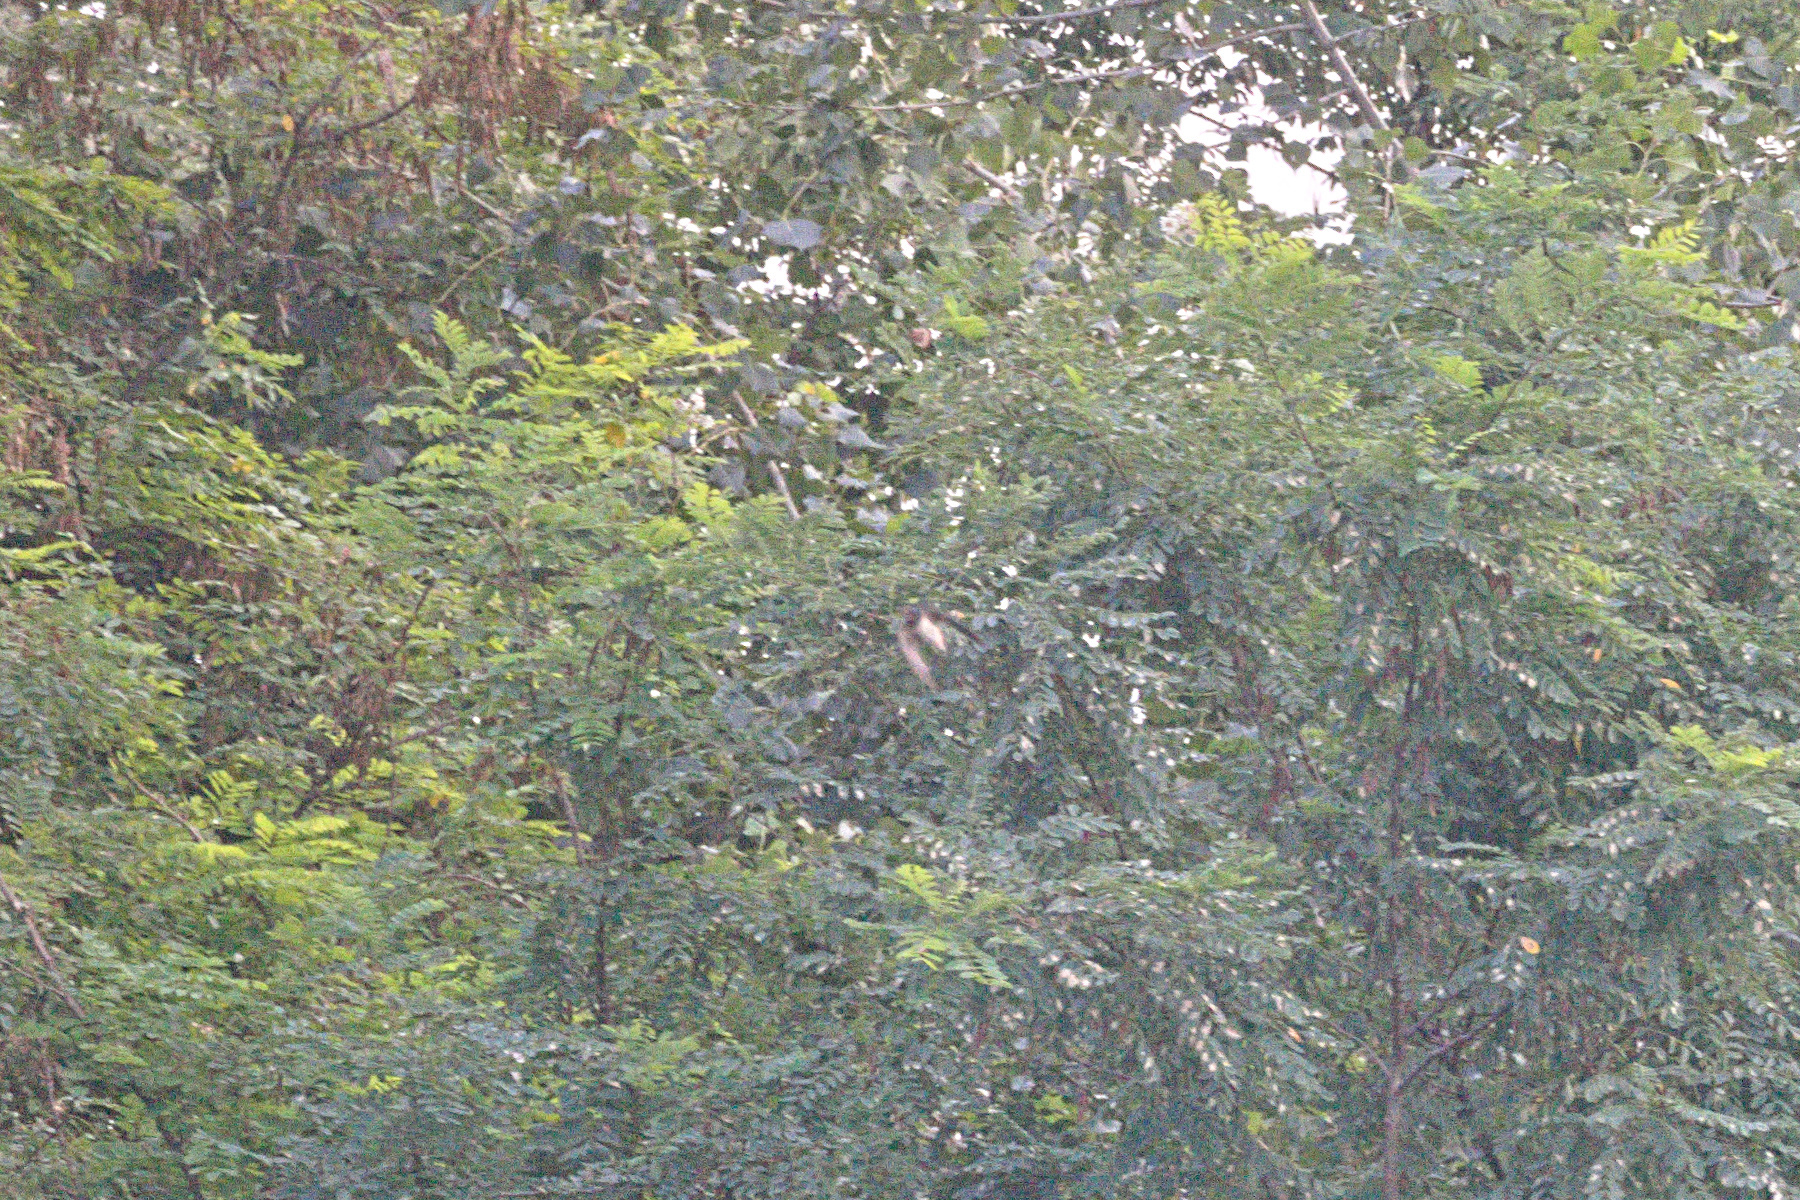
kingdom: Animalia
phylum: Chordata
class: Aves
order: Passeriformes
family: Hirundinidae
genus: Hirundo
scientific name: Hirundo rustica
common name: Barn swallow
